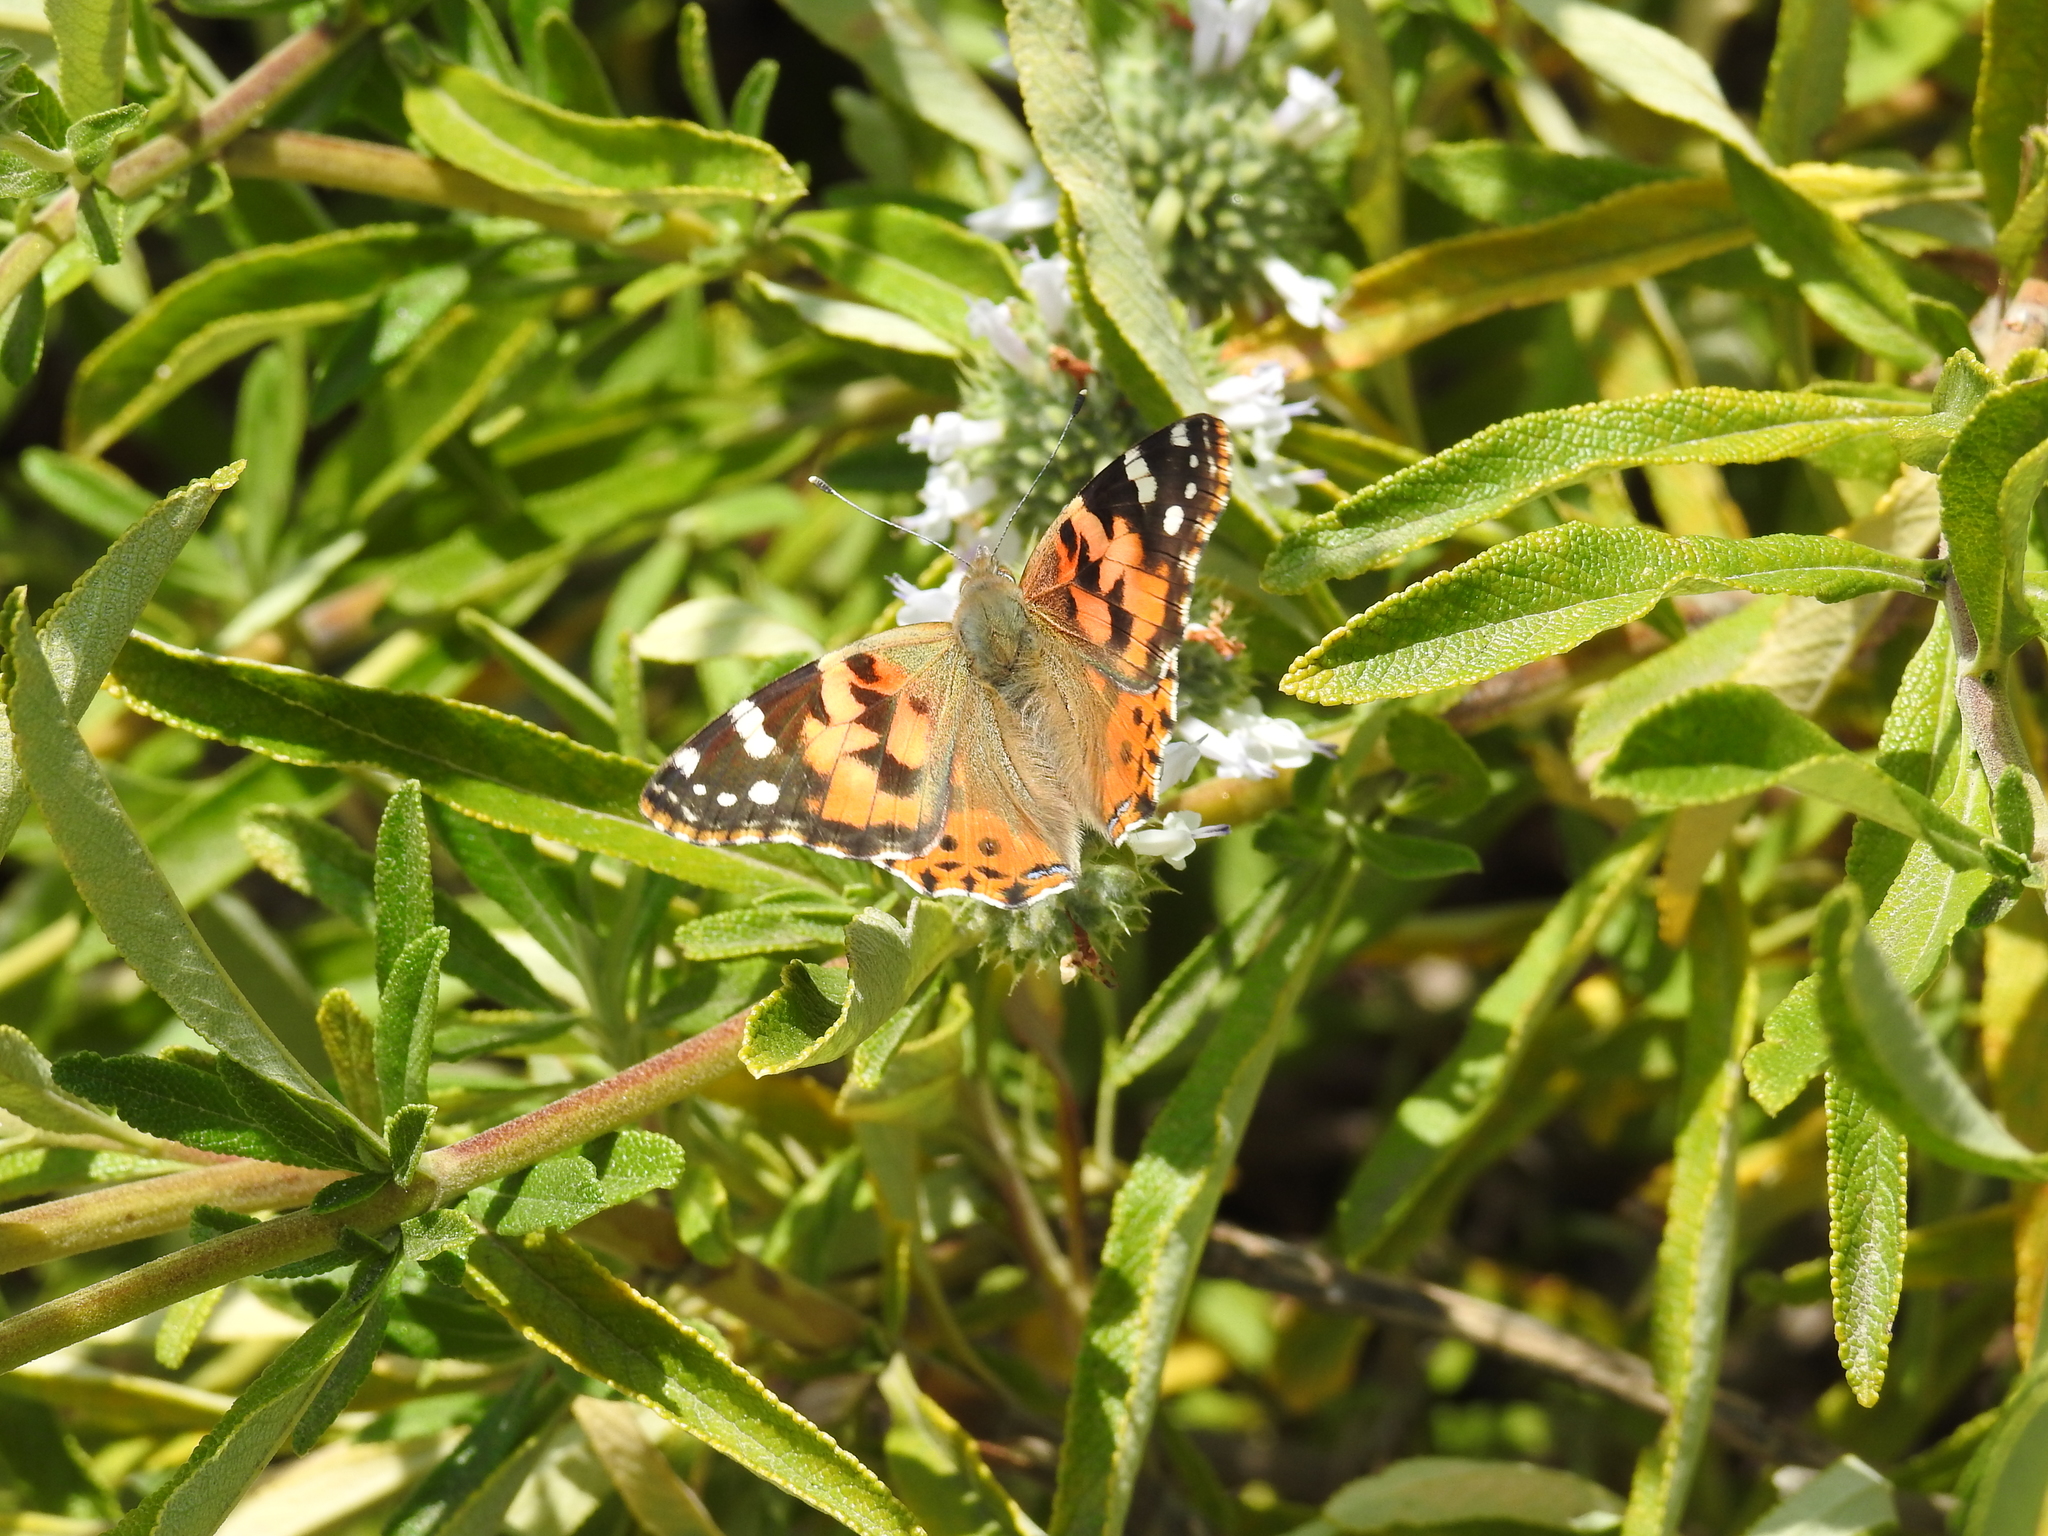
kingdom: Animalia
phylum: Arthropoda
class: Insecta
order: Lepidoptera
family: Nymphalidae
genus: Vanessa
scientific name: Vanessa cardui
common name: Painted lady
